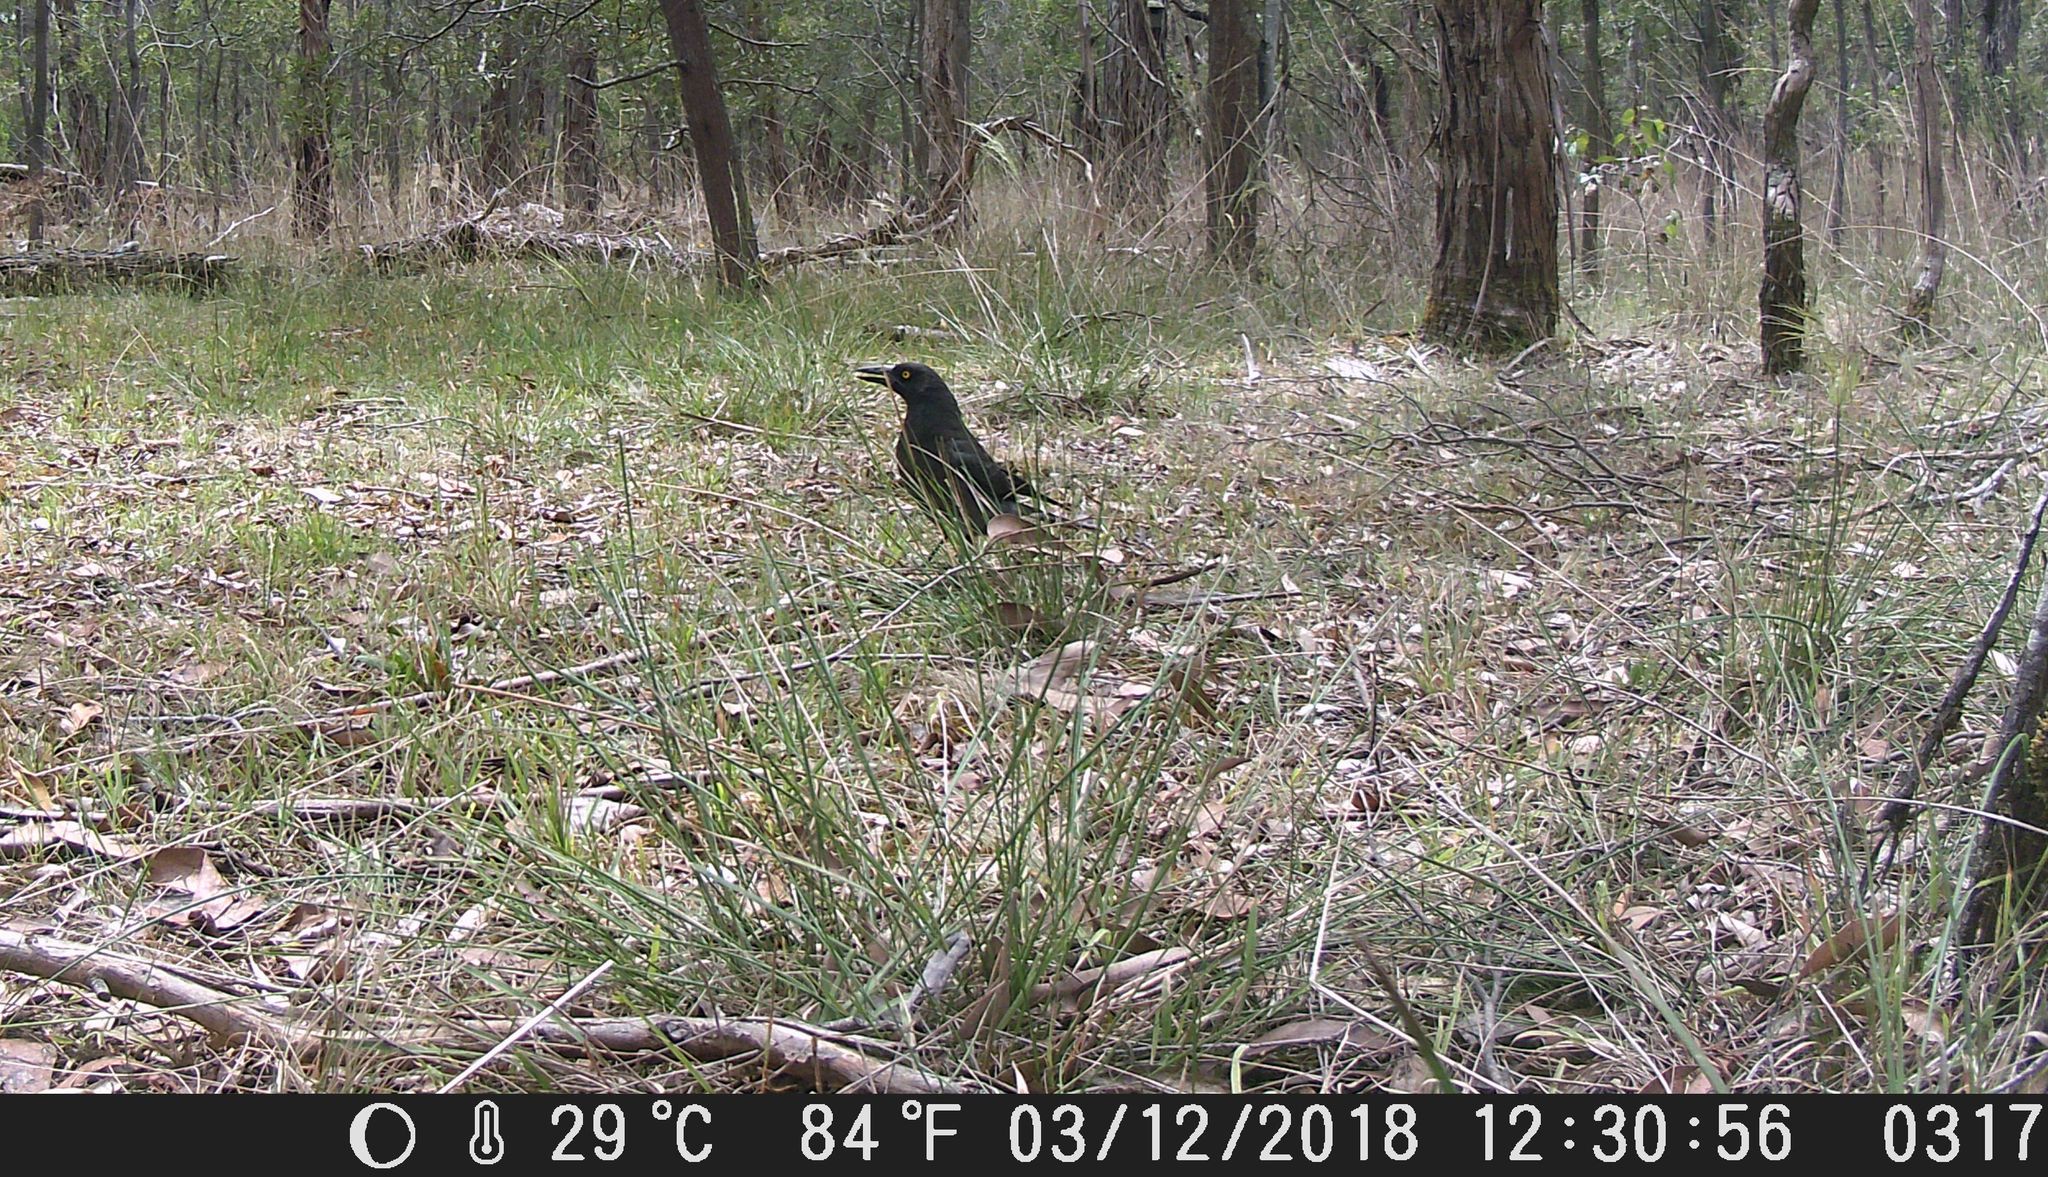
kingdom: Animalia
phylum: Chordata
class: Aves
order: Passeriformes
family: Cracticidae
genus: Strepera
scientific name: Strepera graculina
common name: Pied currawong
